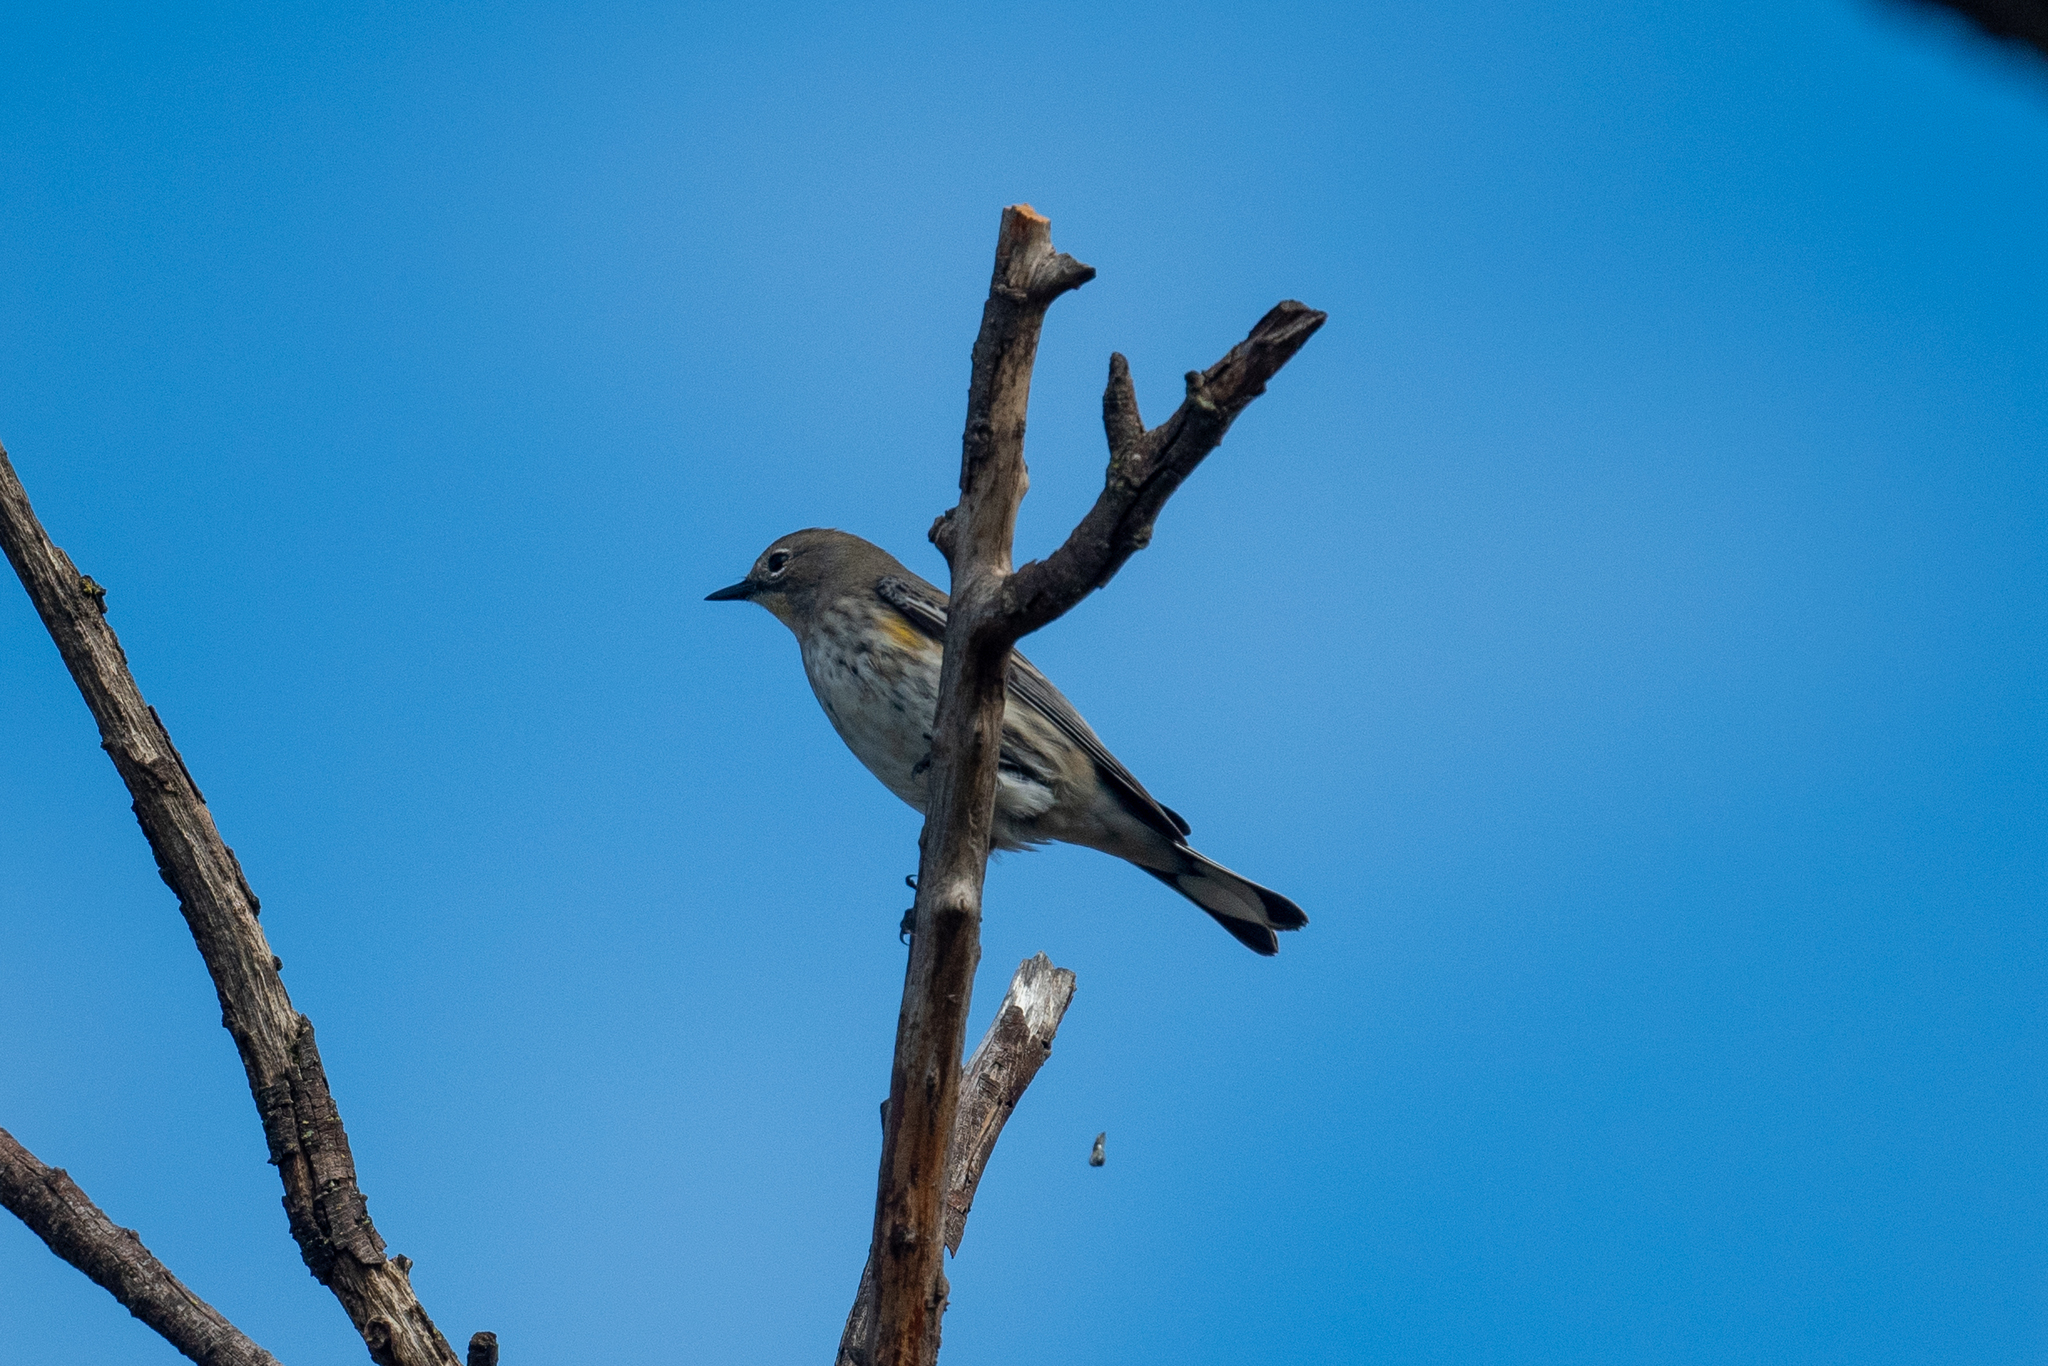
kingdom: Animalia
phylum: Chordata
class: Aves
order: Passeriformes
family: Parulidae
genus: Setophaga
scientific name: Setophaga coronata
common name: Myrtle warbler
